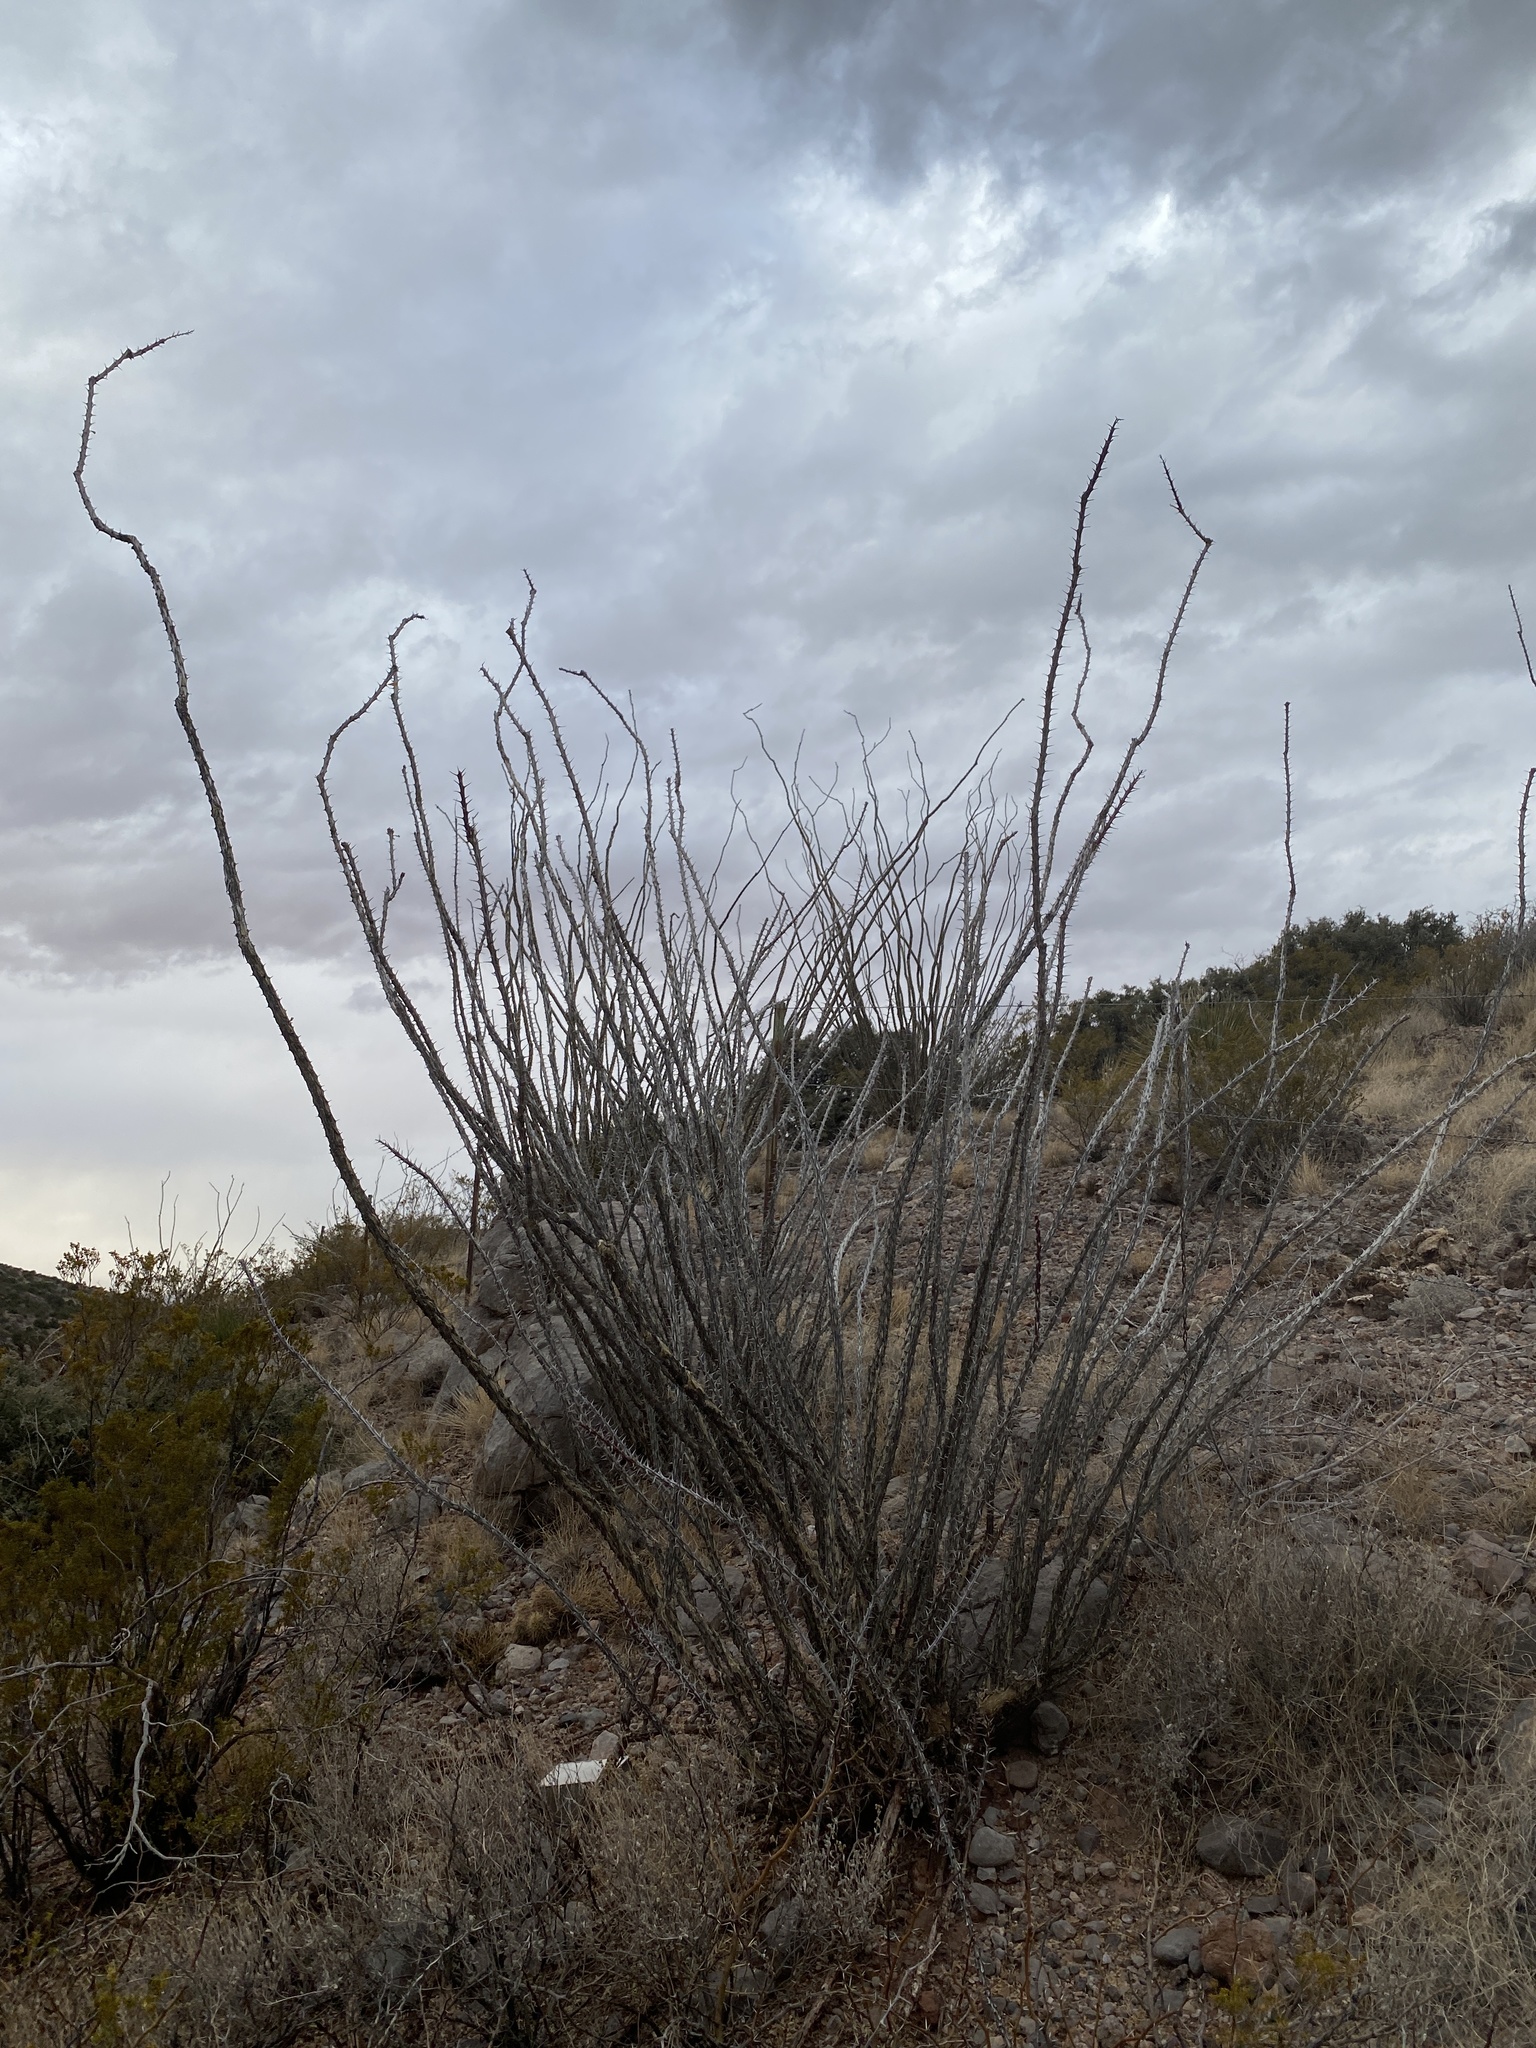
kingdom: Plantae
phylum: Tracheophyta
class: Magnoliopsida
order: Ericales
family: Fouquieriaceae
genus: Fouquieria
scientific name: Fouquieria splendens
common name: Vine-cactus
